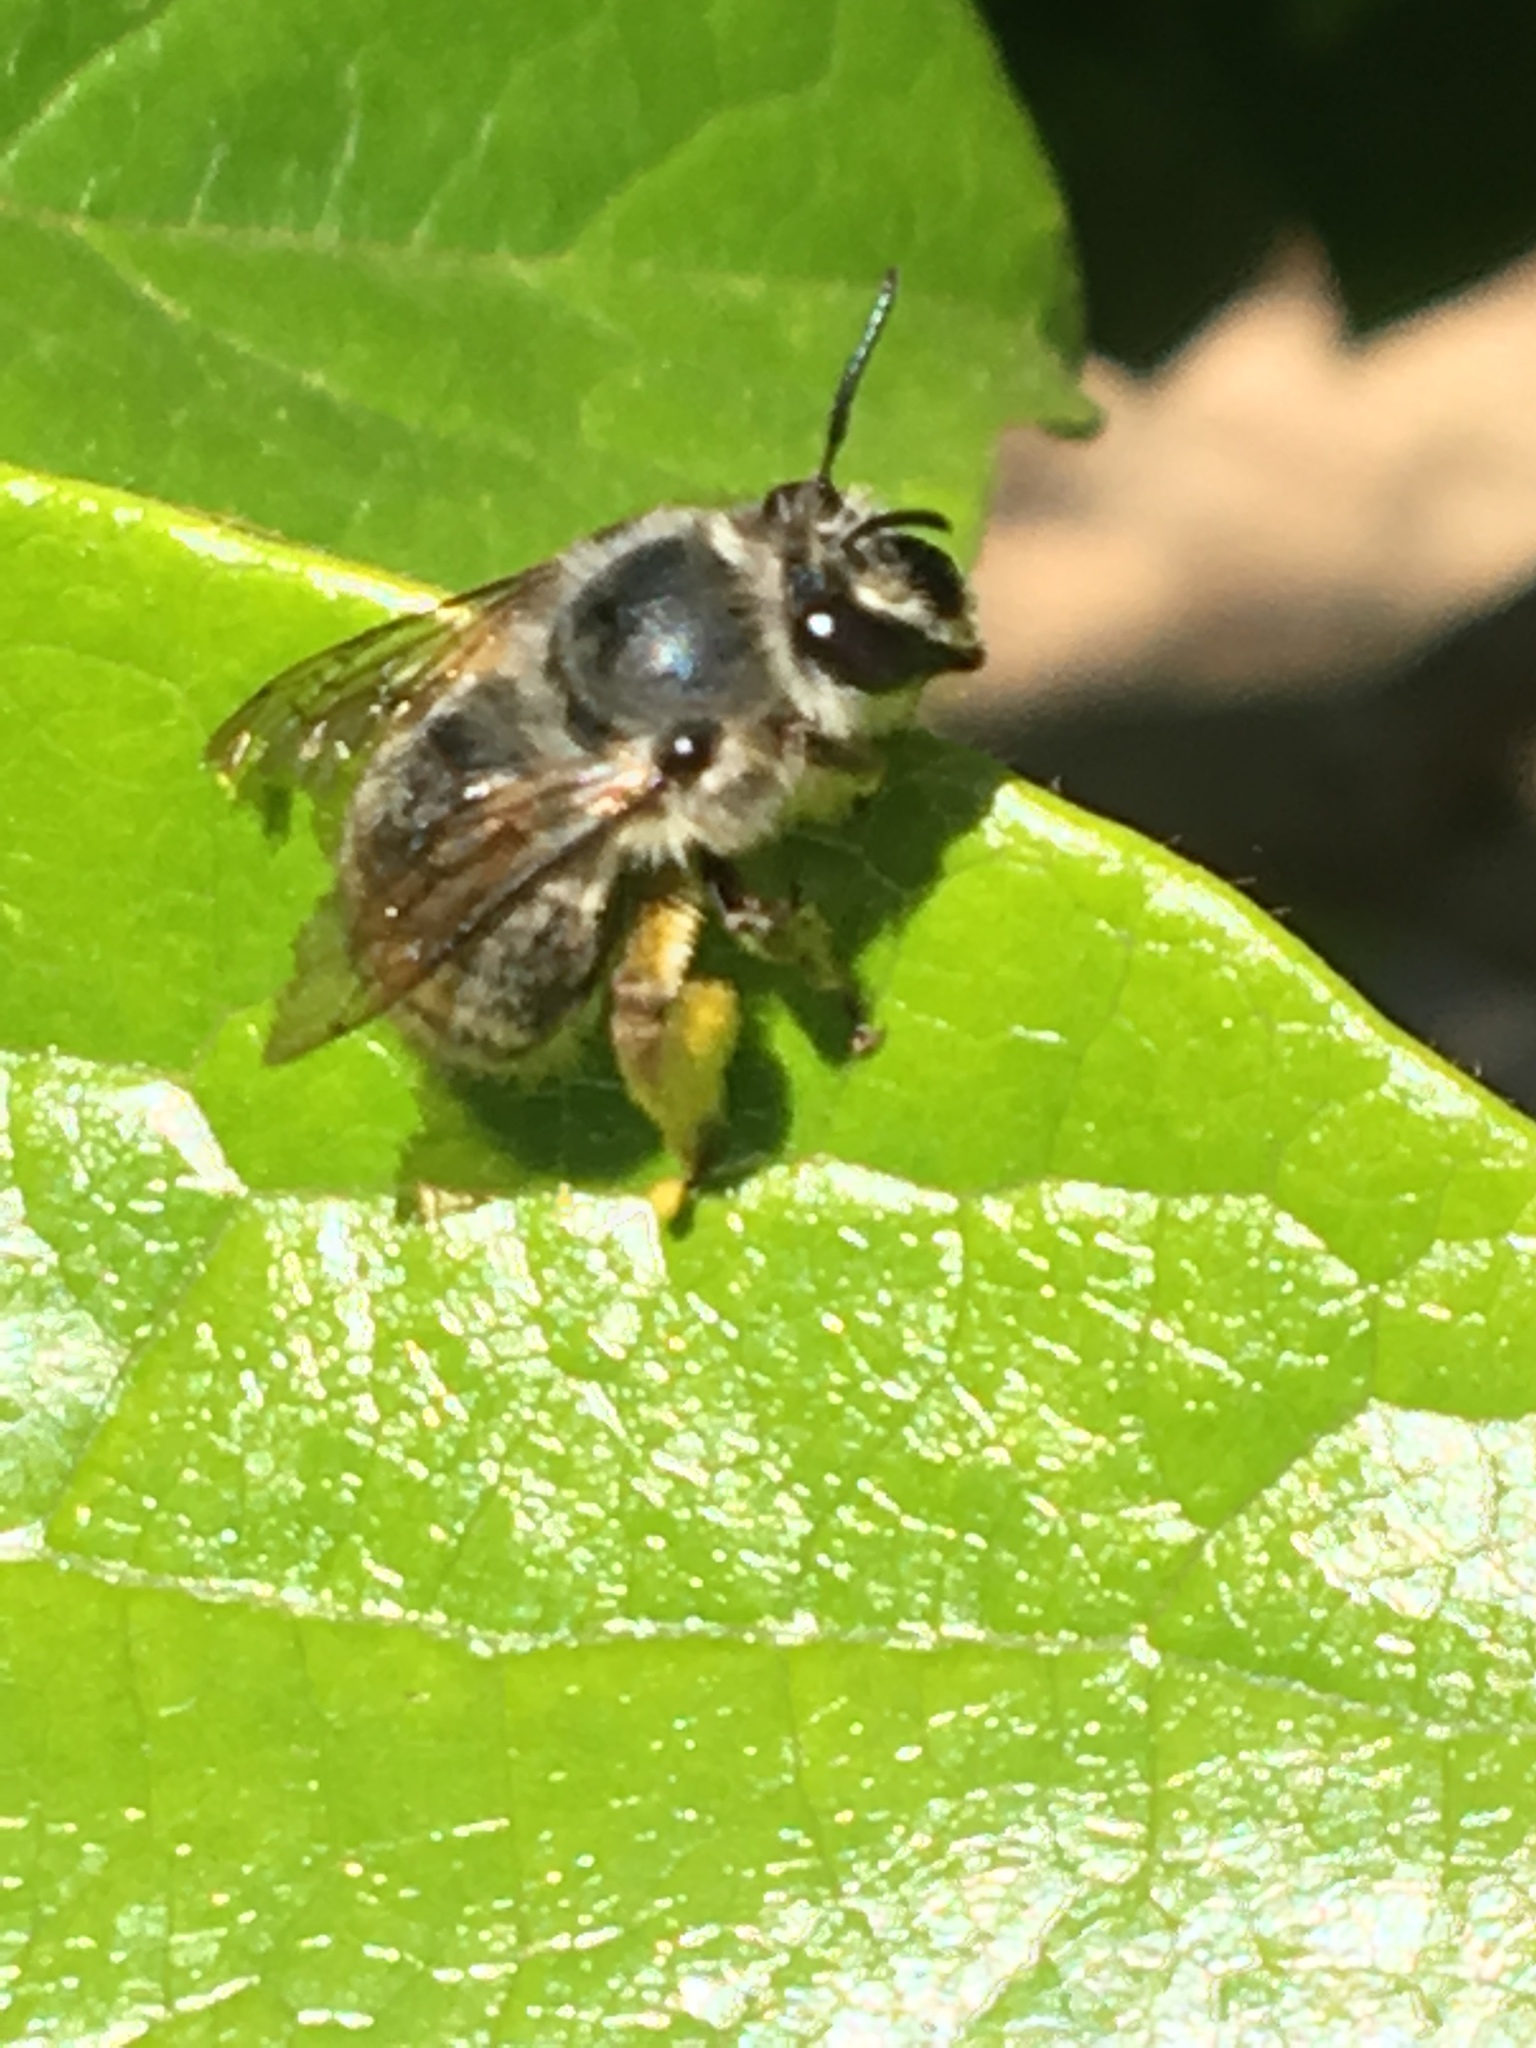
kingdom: Animalia
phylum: Arthropoda
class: Insecta
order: Hymenoptera
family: Apidae
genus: Habropoda
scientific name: Habropoda depressa
